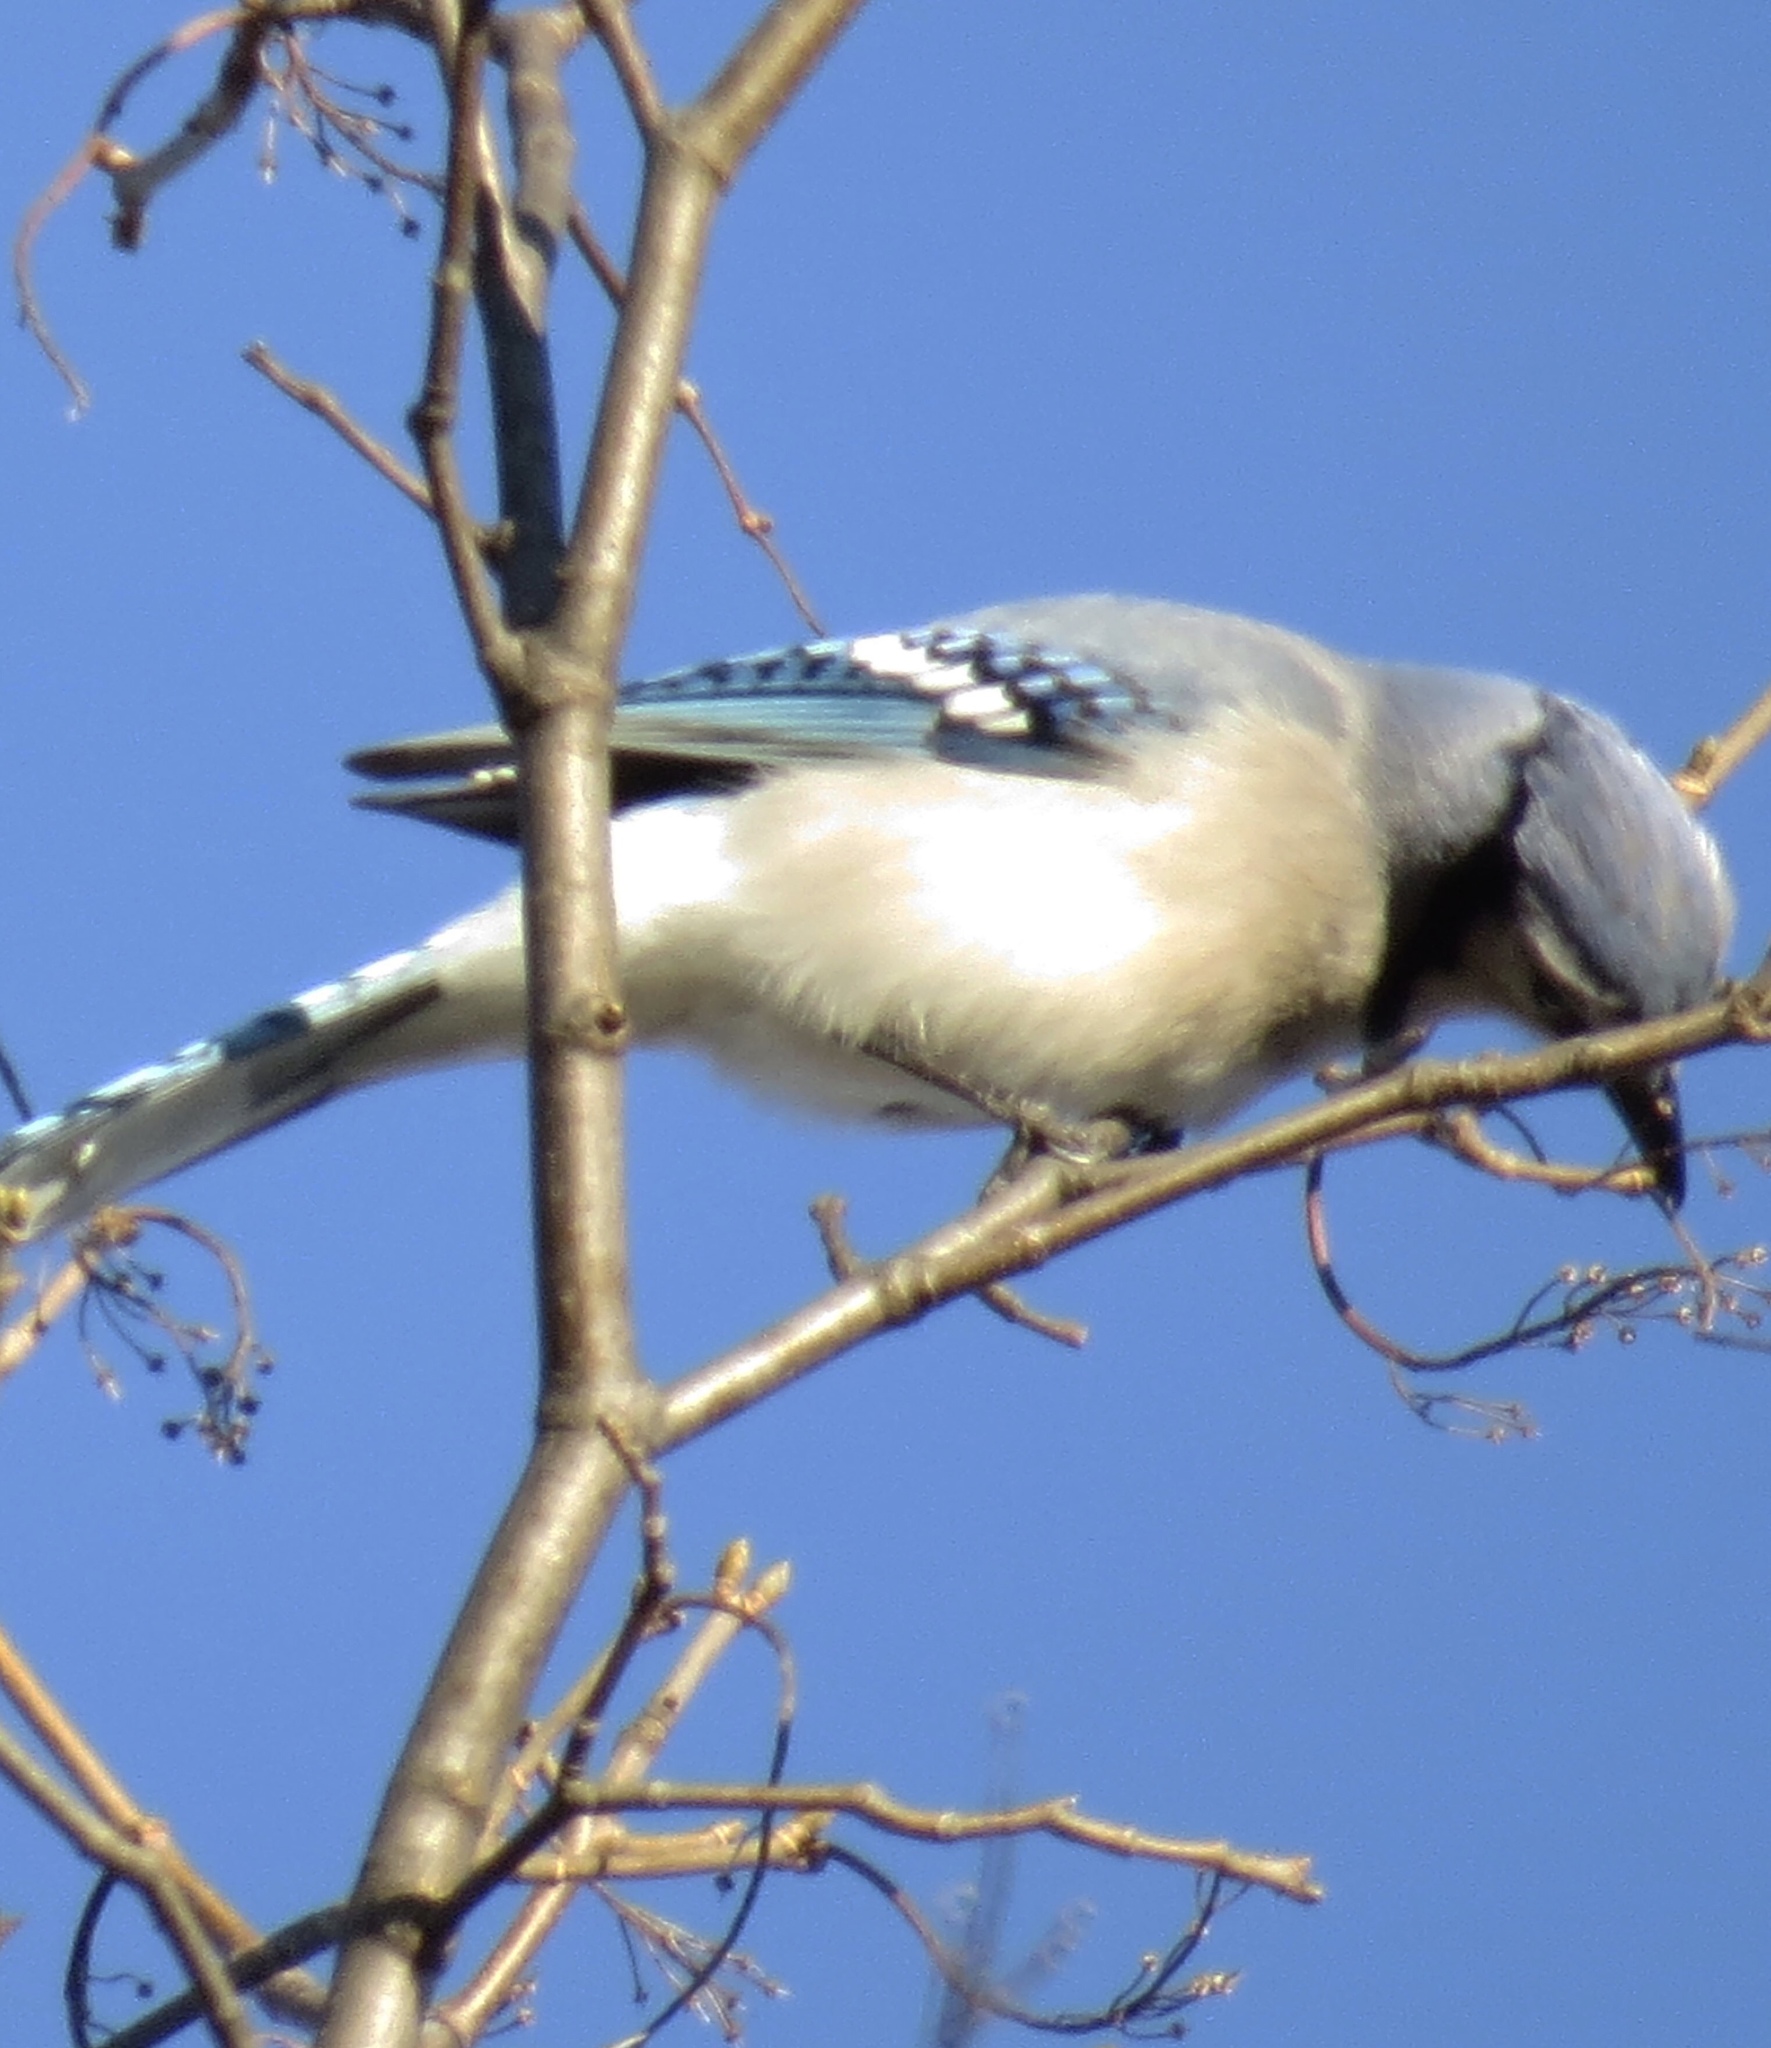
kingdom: Animalia
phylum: Chordata
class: Aves
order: Passeriformes
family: Corvidae
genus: Cyanocitta
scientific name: Cyanocitta cristata
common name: Blue jay
